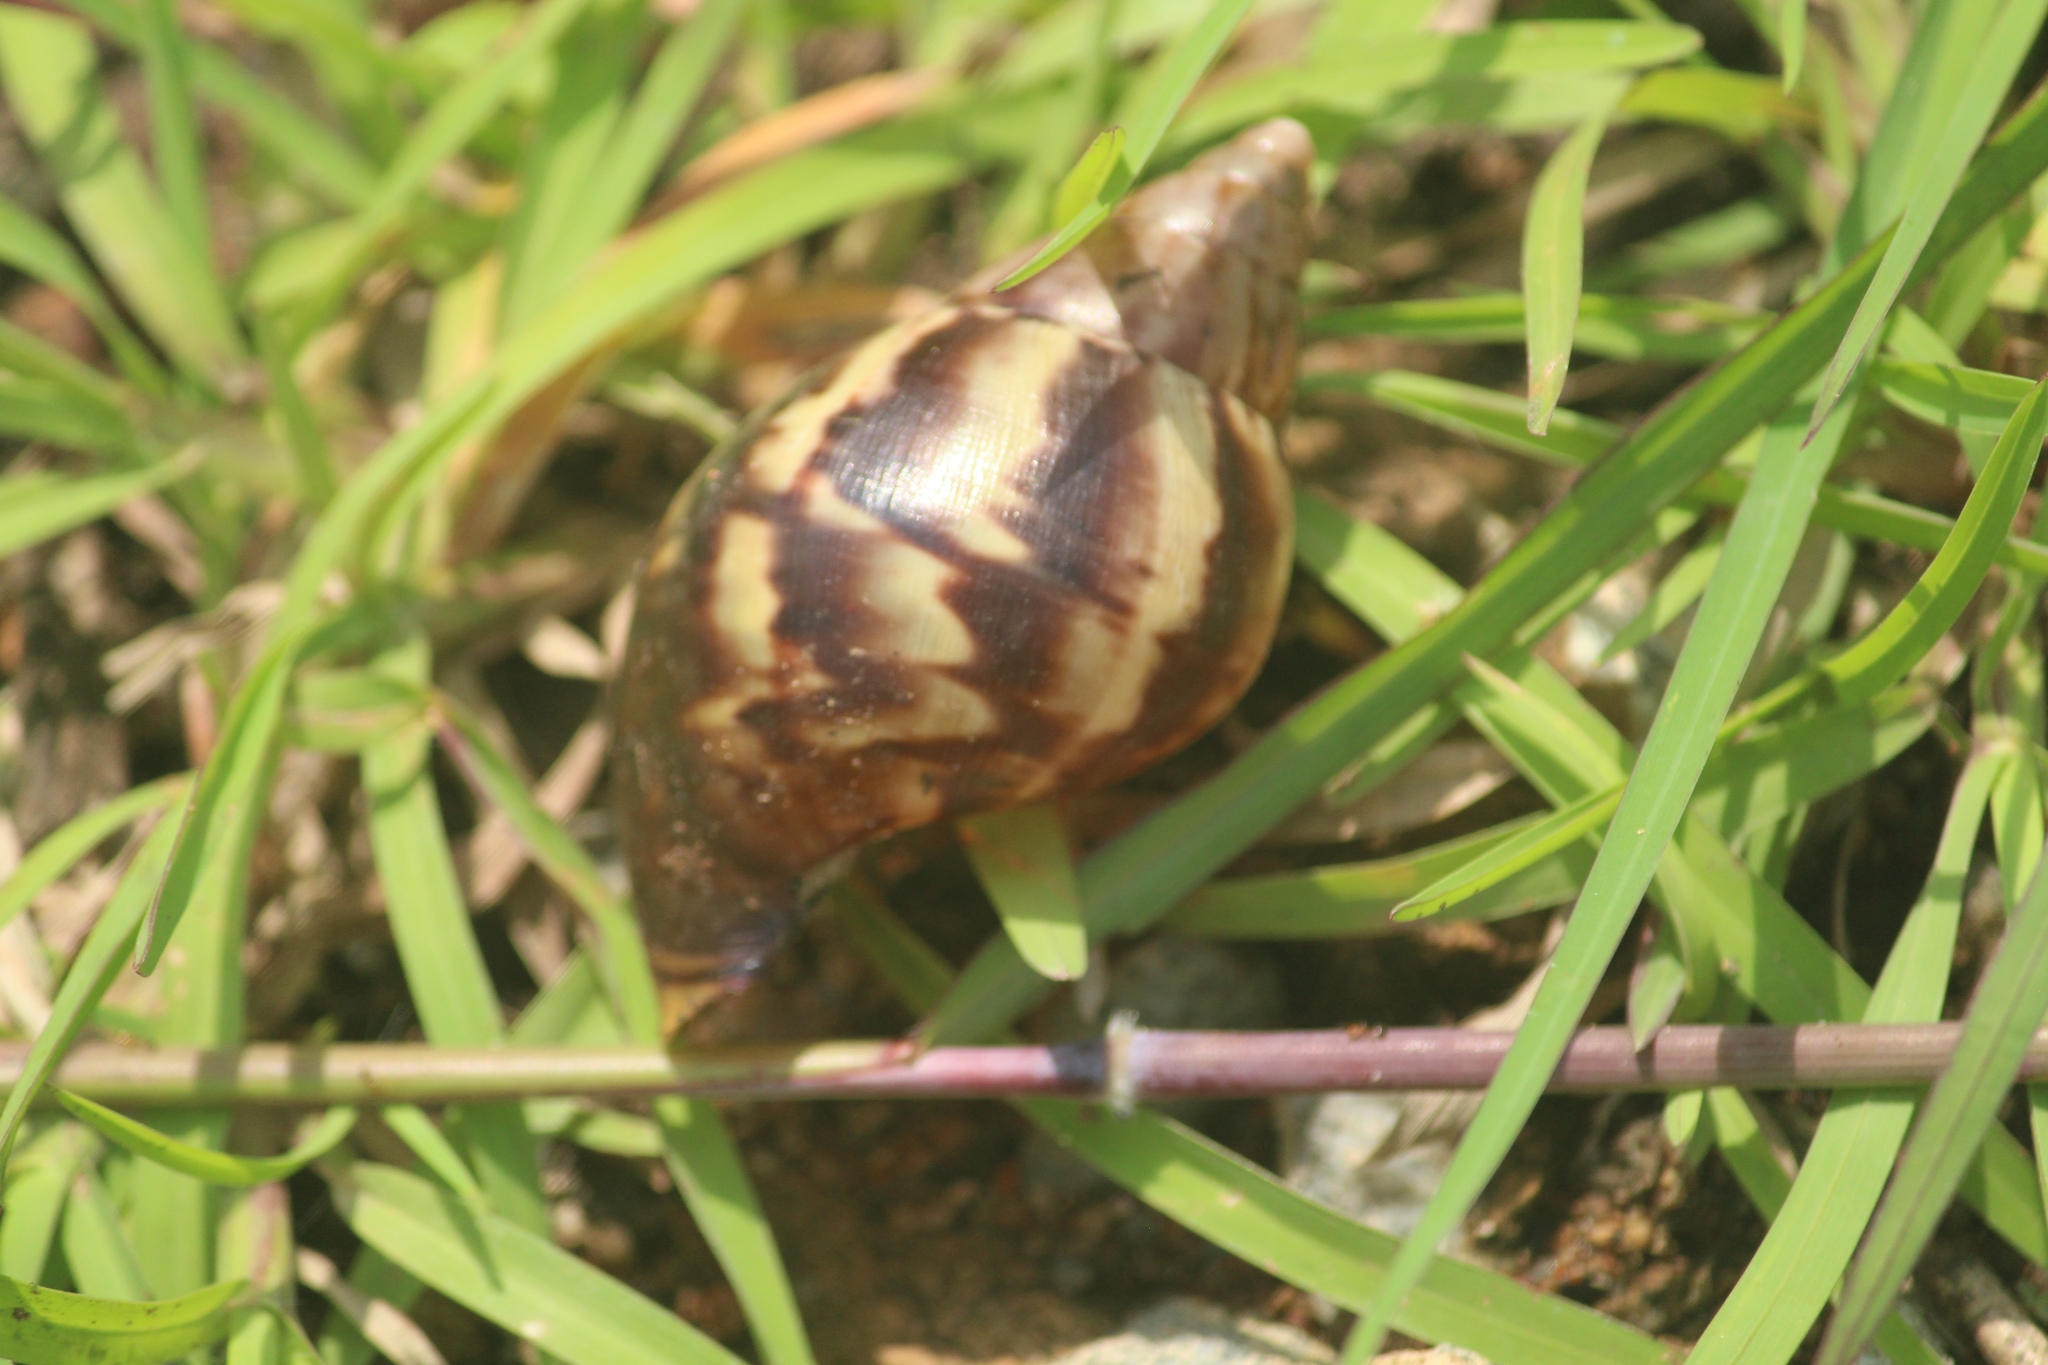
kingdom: Animalia
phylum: Mollusca
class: Gastropoda
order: Stylommatophora
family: Achatinidae
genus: Lissachatina
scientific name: Lissachatina fulica
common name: Giant african snail
